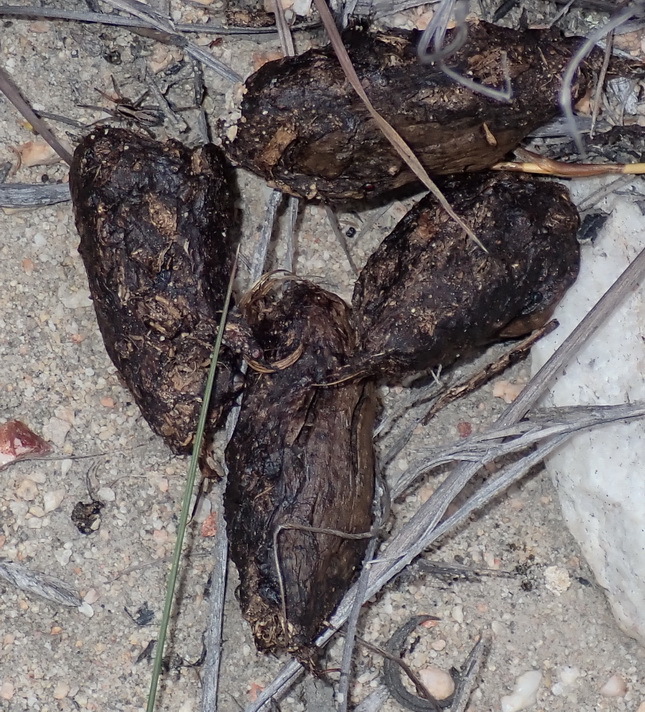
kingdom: Animalia
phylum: Chordata
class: Mammalia
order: Rodentia
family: Hystricidae
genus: Hystrix
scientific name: Hystrix africaeaustralis
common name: Cape porcupine
